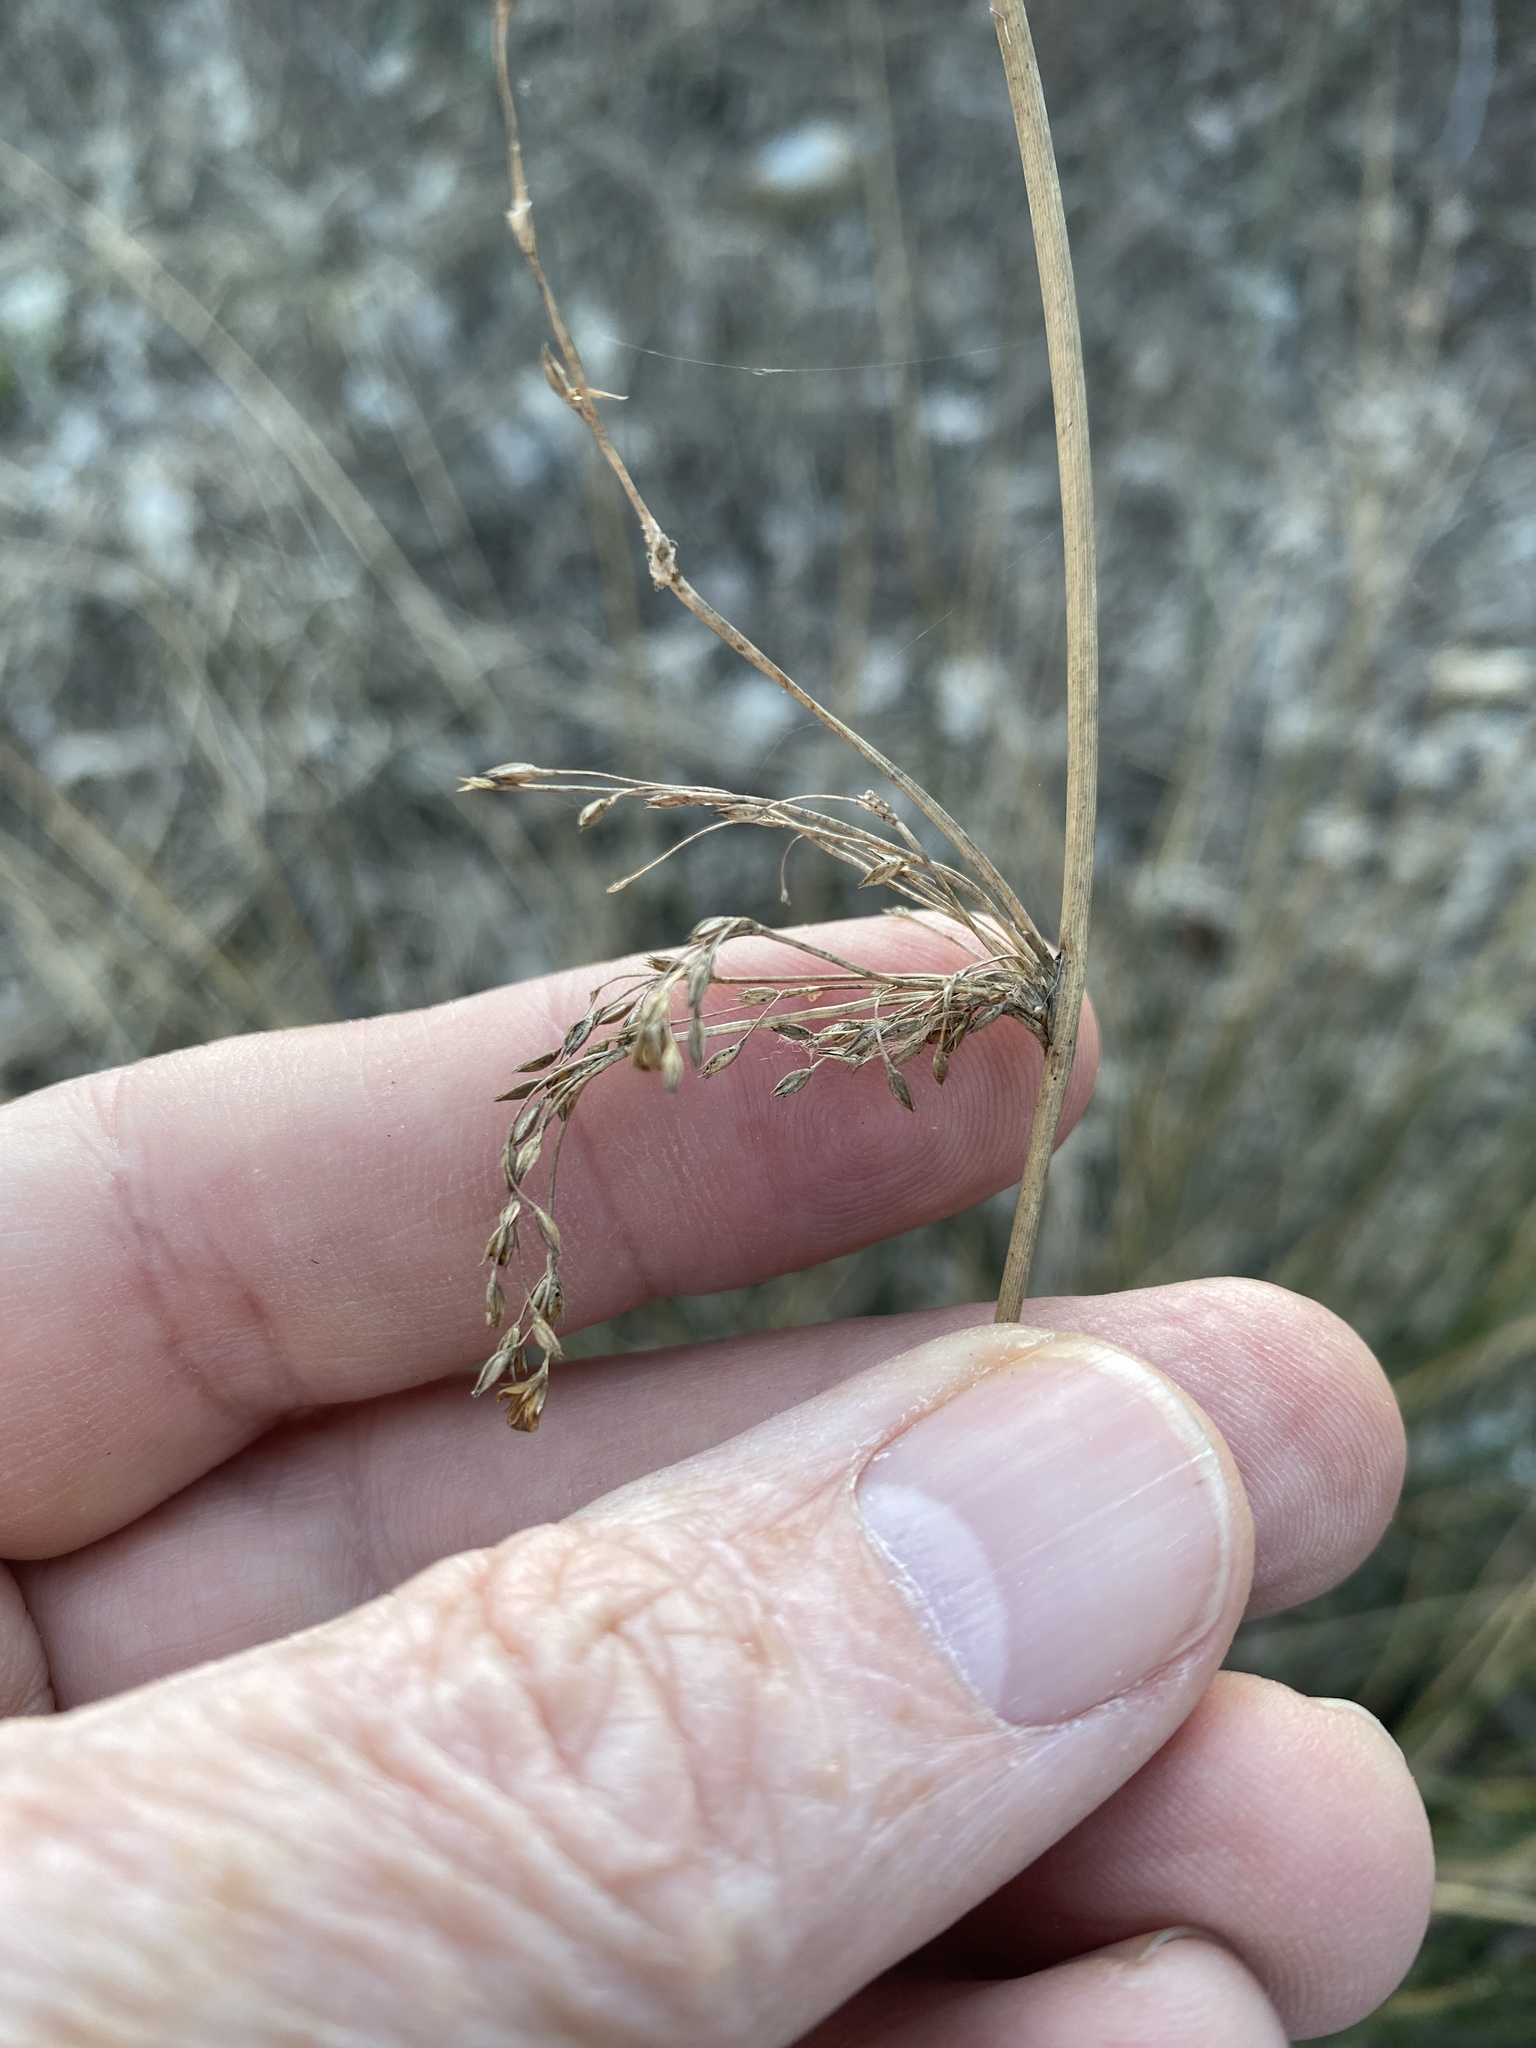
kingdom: Plantae
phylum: Tracheophyta
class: Liliopsida
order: Poales
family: Juncaceae
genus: Juncus
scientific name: Juncus effusus
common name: Soft rush
